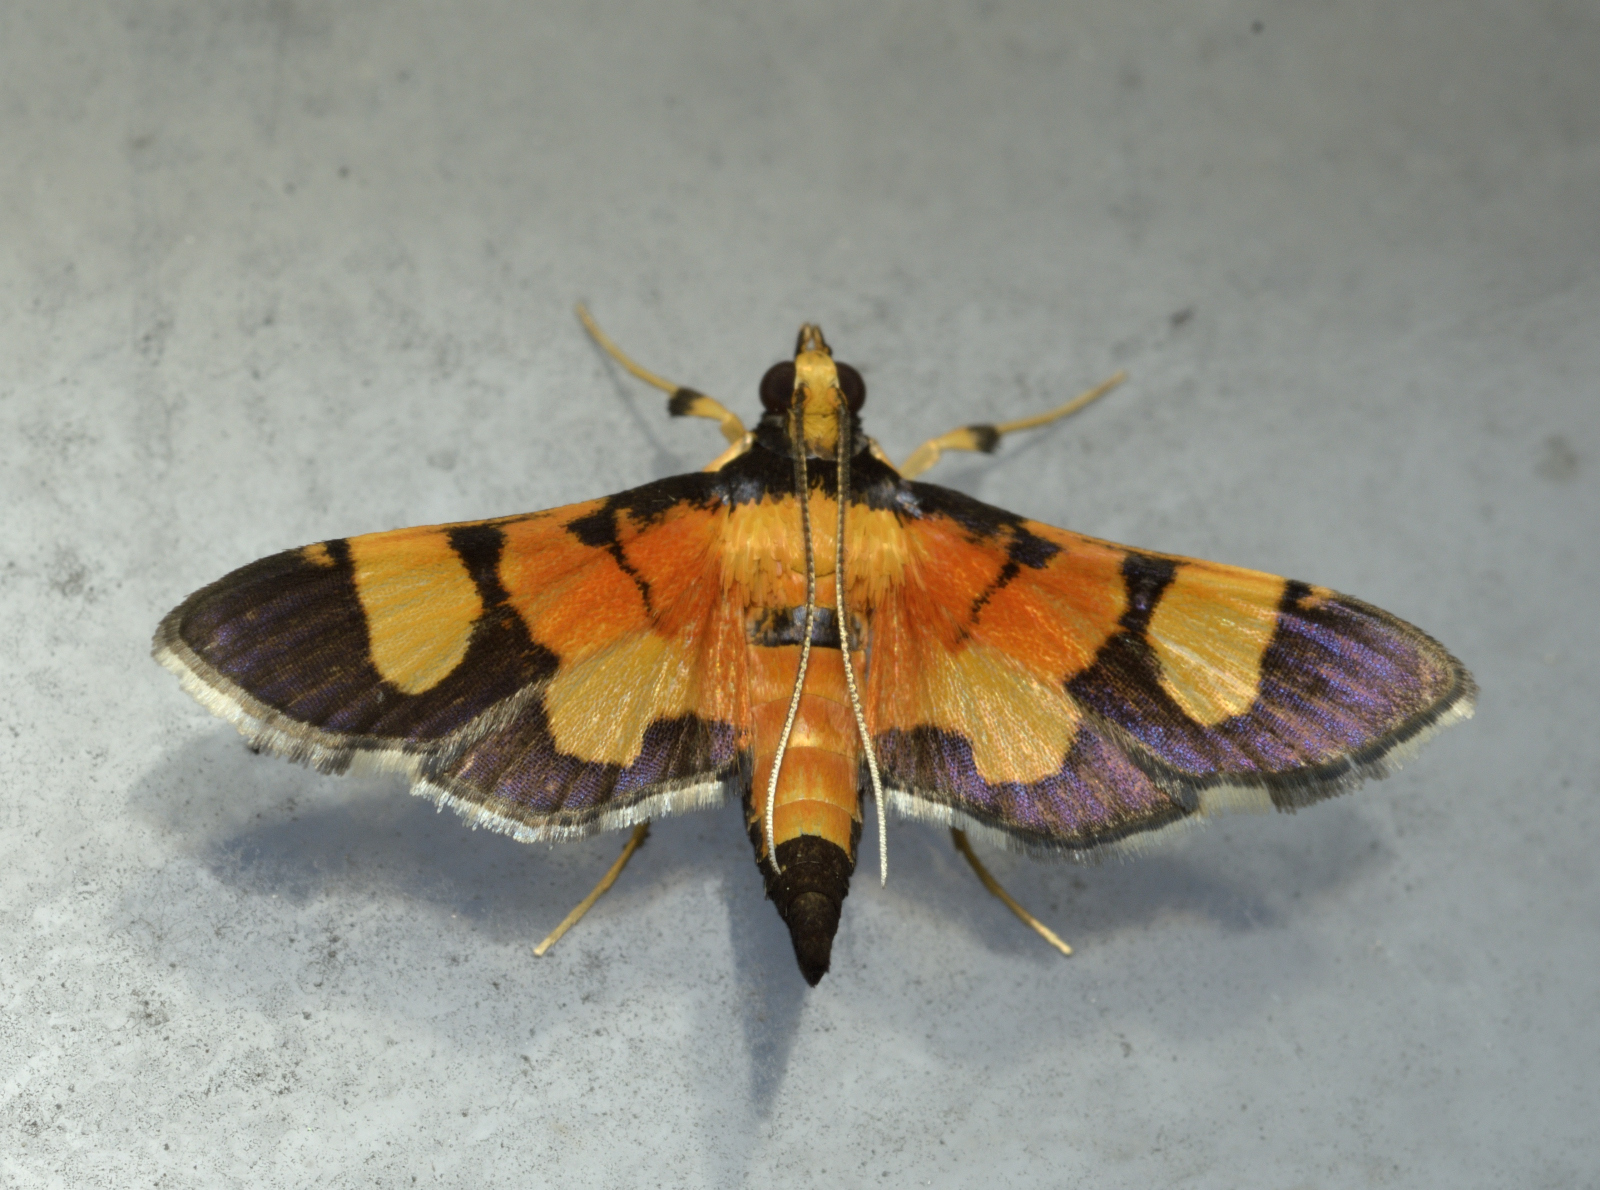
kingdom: Animalia
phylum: Arthropoda
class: Insecta
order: Lepidoptera
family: Crambidae
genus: Aethaloessa
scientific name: Aethaloessa calidalis
